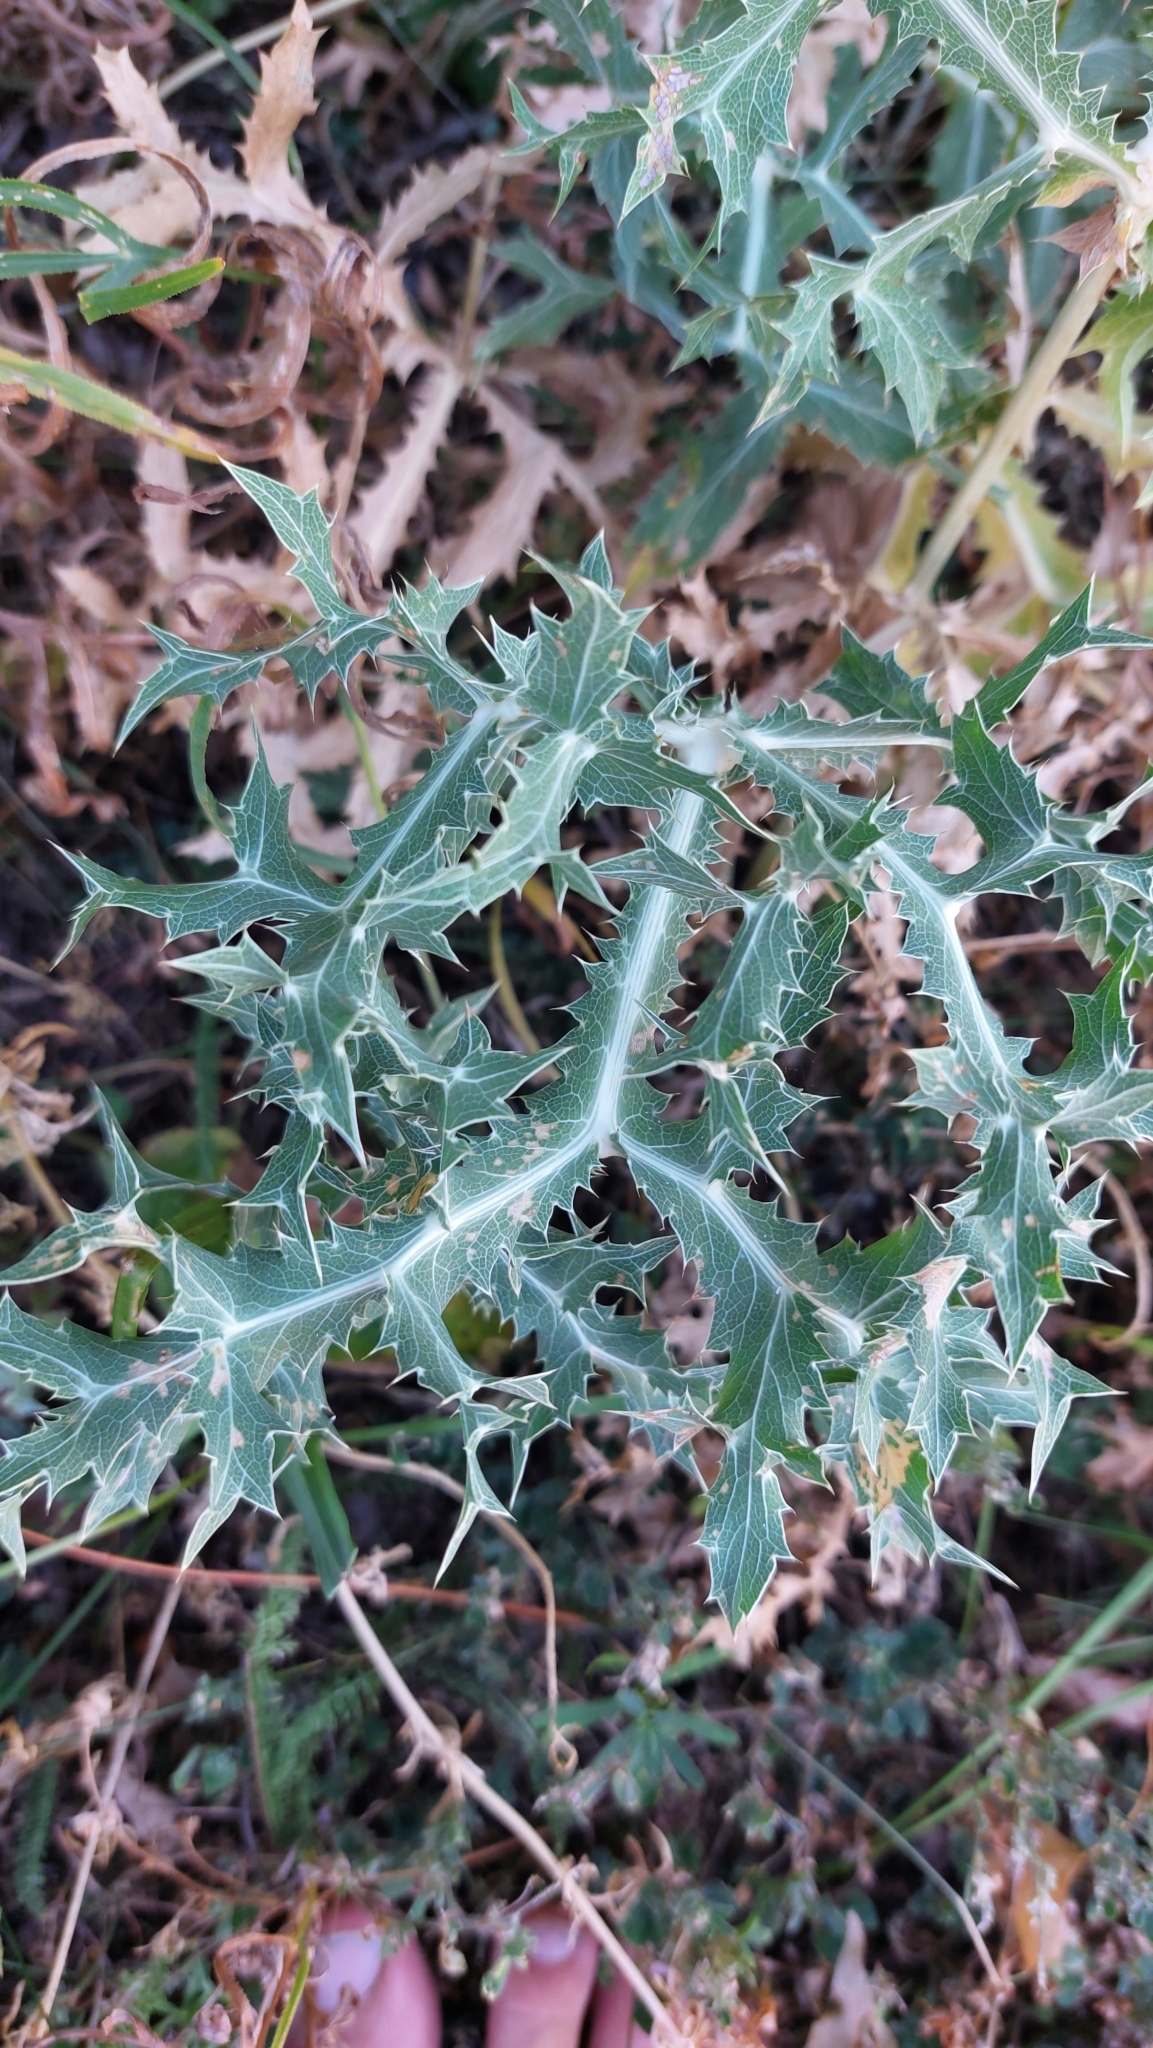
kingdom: Plantae
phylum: Tracheophyta
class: Magnoliopsida
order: Apiales
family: Apiaceae
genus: Eryngium
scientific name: Eryngium campestre
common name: Field eryngo
